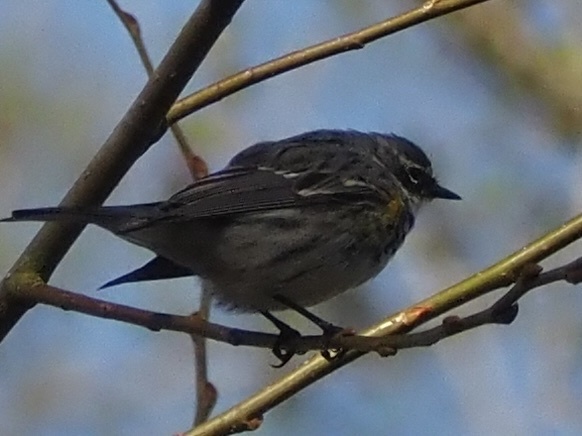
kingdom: Animalia
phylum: Chordata
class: Aves
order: Passeriformes
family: Parulidae
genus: Setophaga
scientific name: Setophaga coronata
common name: Myrtle warbler
